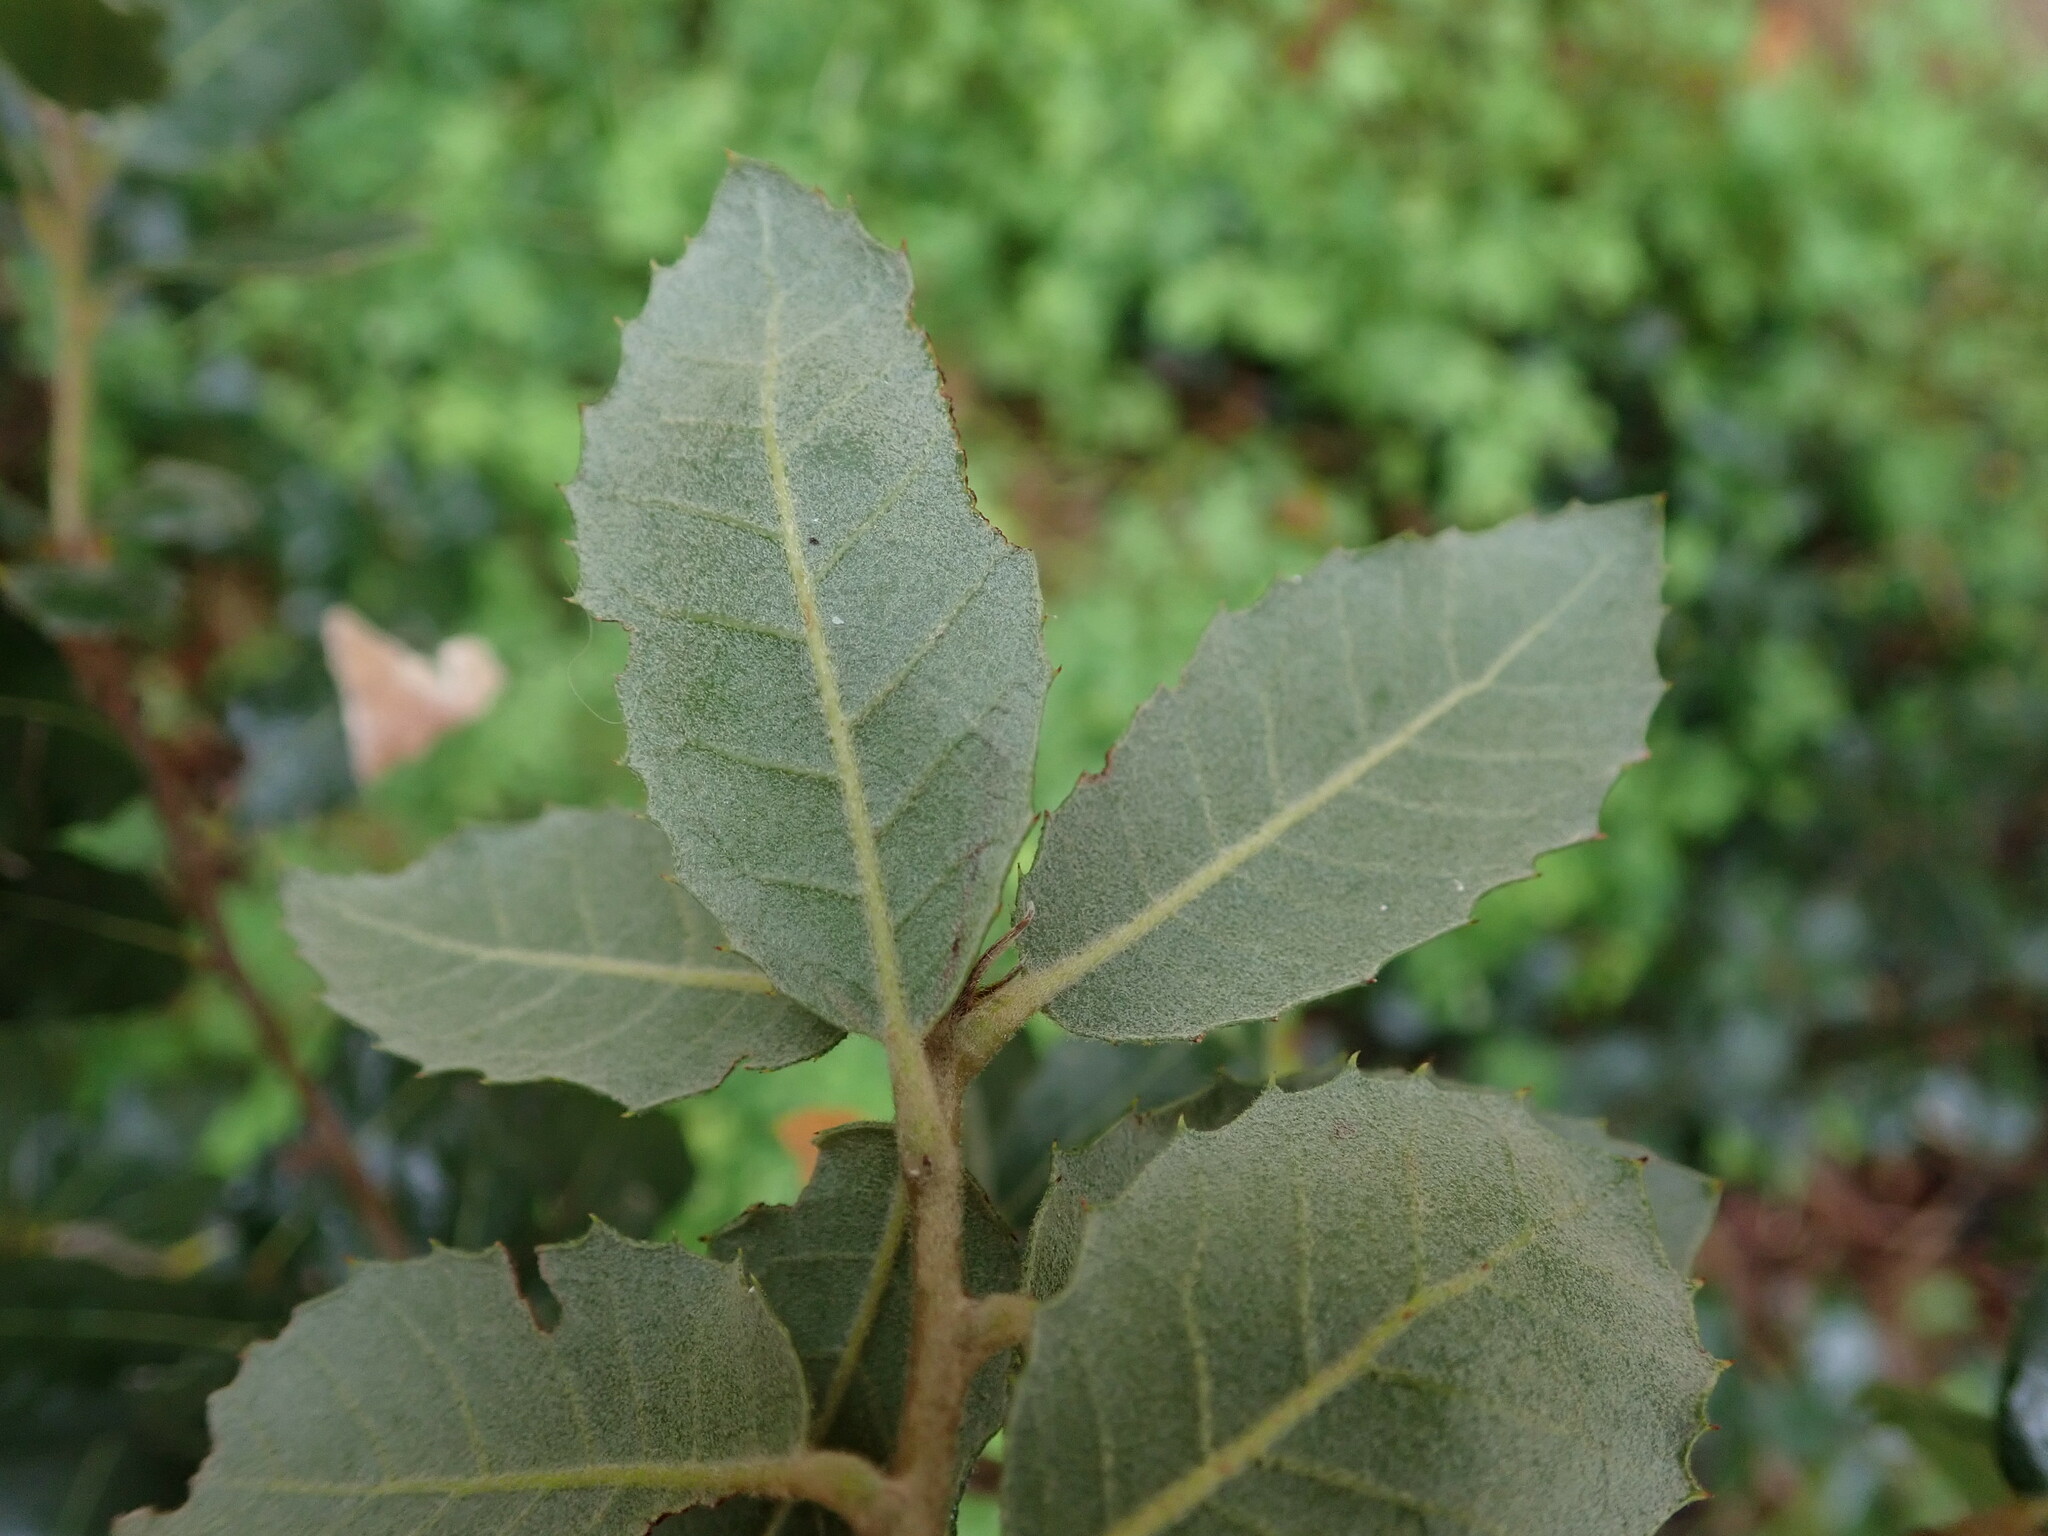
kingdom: Plantae
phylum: Tracheophyta
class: Magnoliopsida
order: Fagales
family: Fagaceae
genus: Quercus
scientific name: Quercus ilex
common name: Evergreen oak
